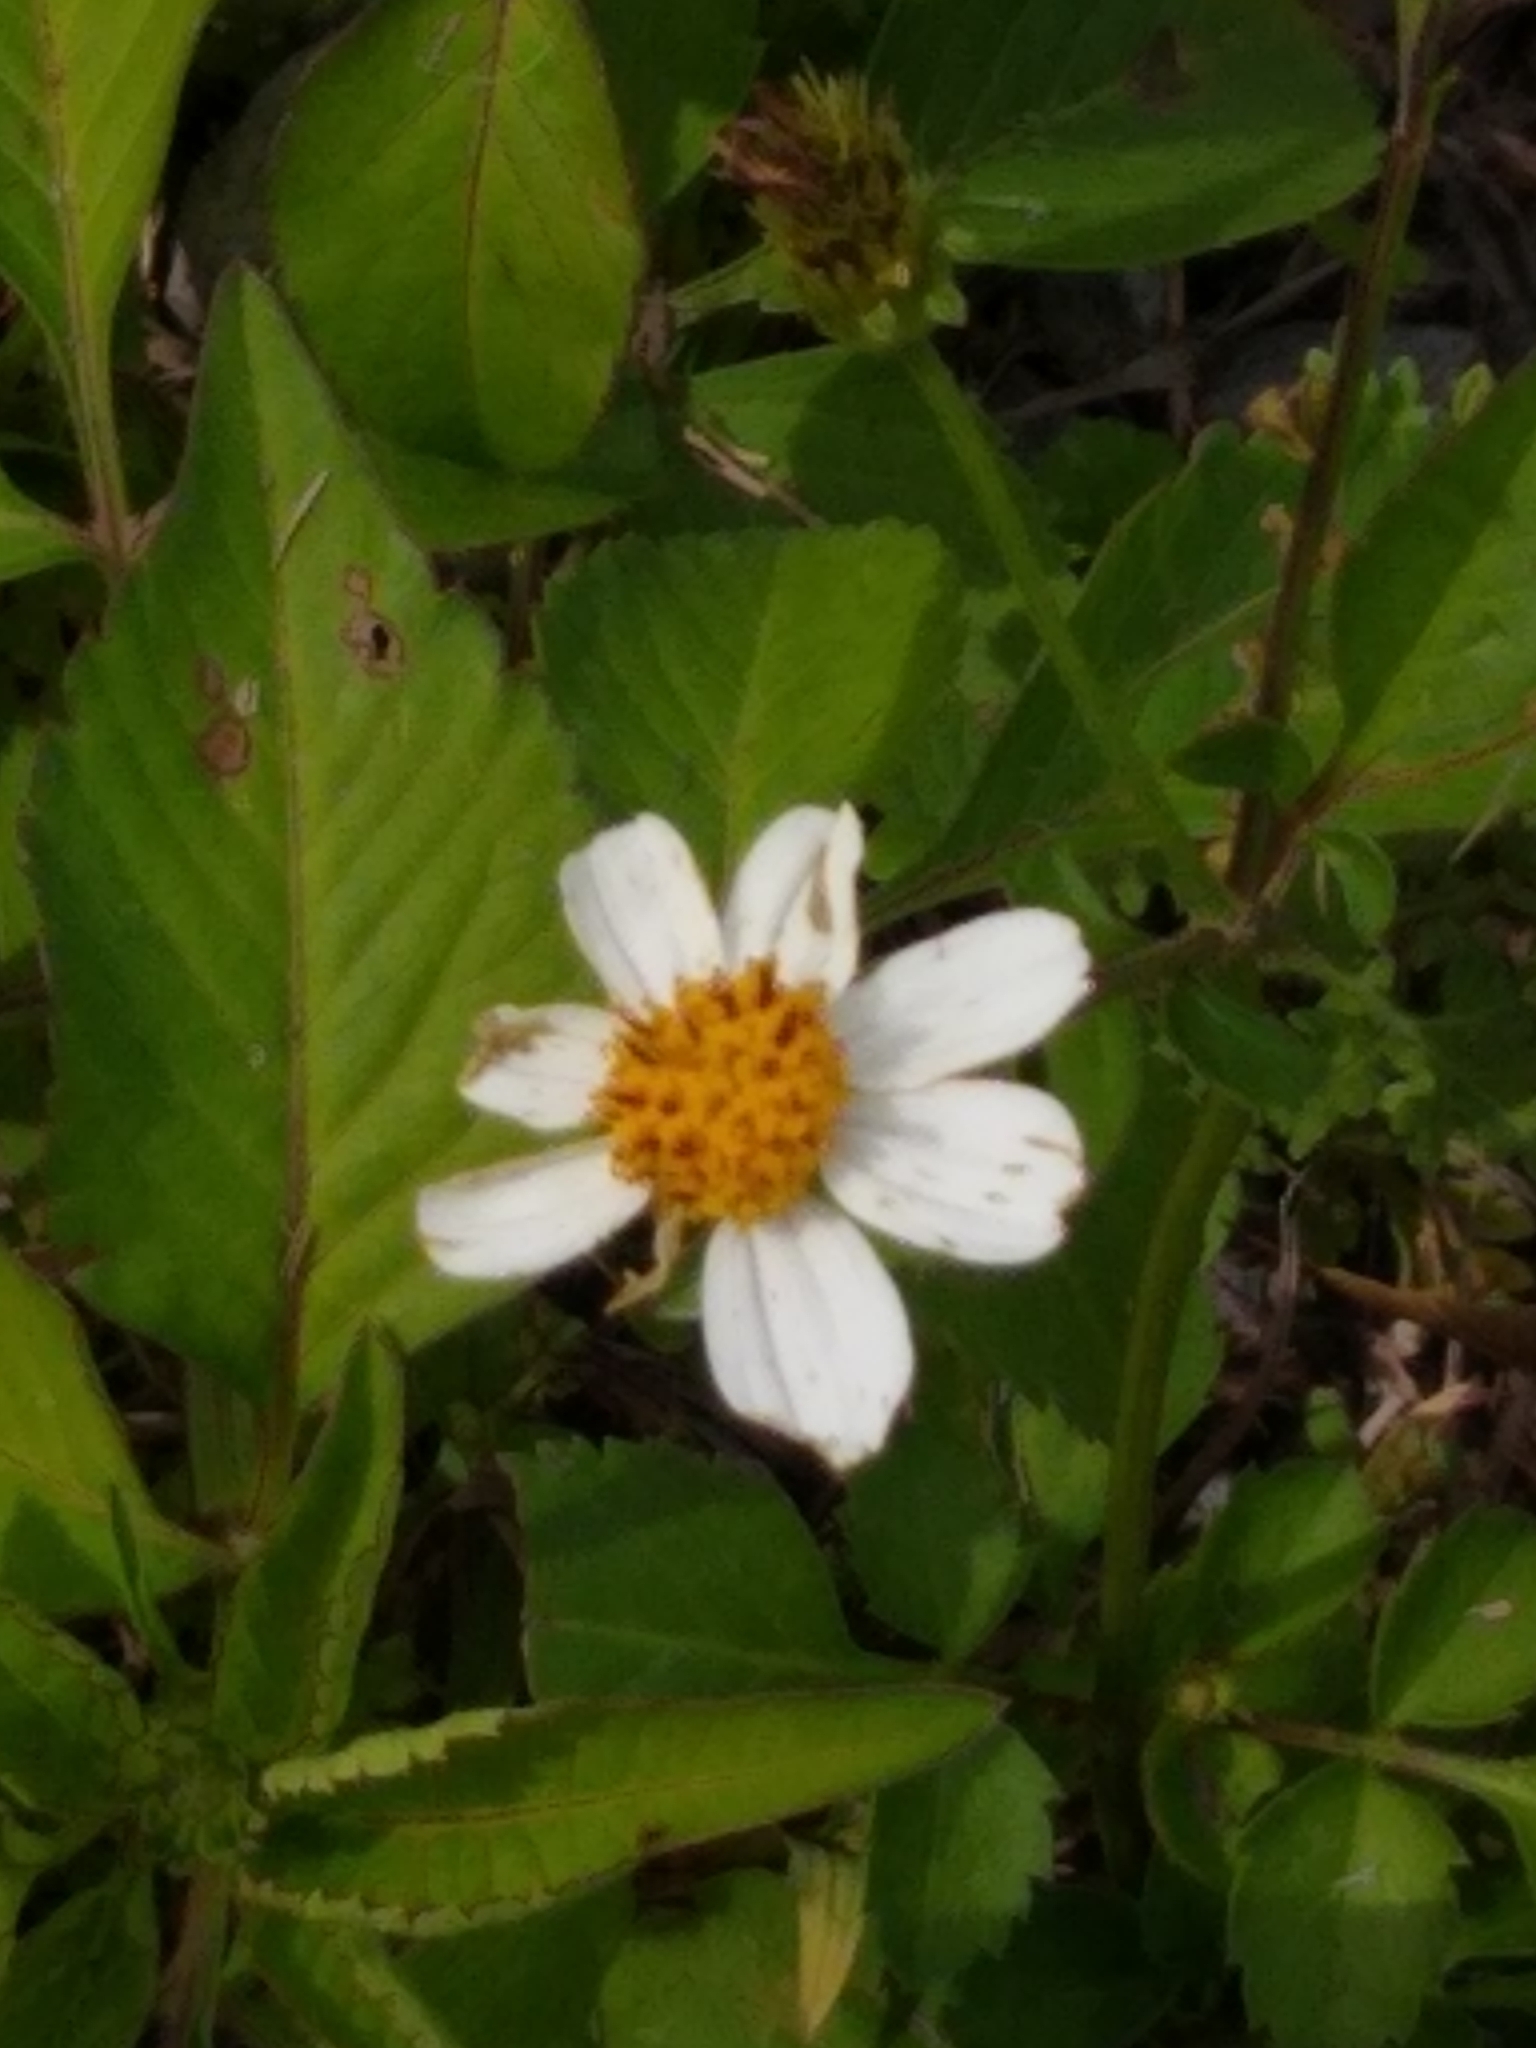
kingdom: Plantae
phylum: Tracheophyta
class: Magnoliopsida
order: Asterales
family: Asteraceae
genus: Bidens
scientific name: Bidens alba
